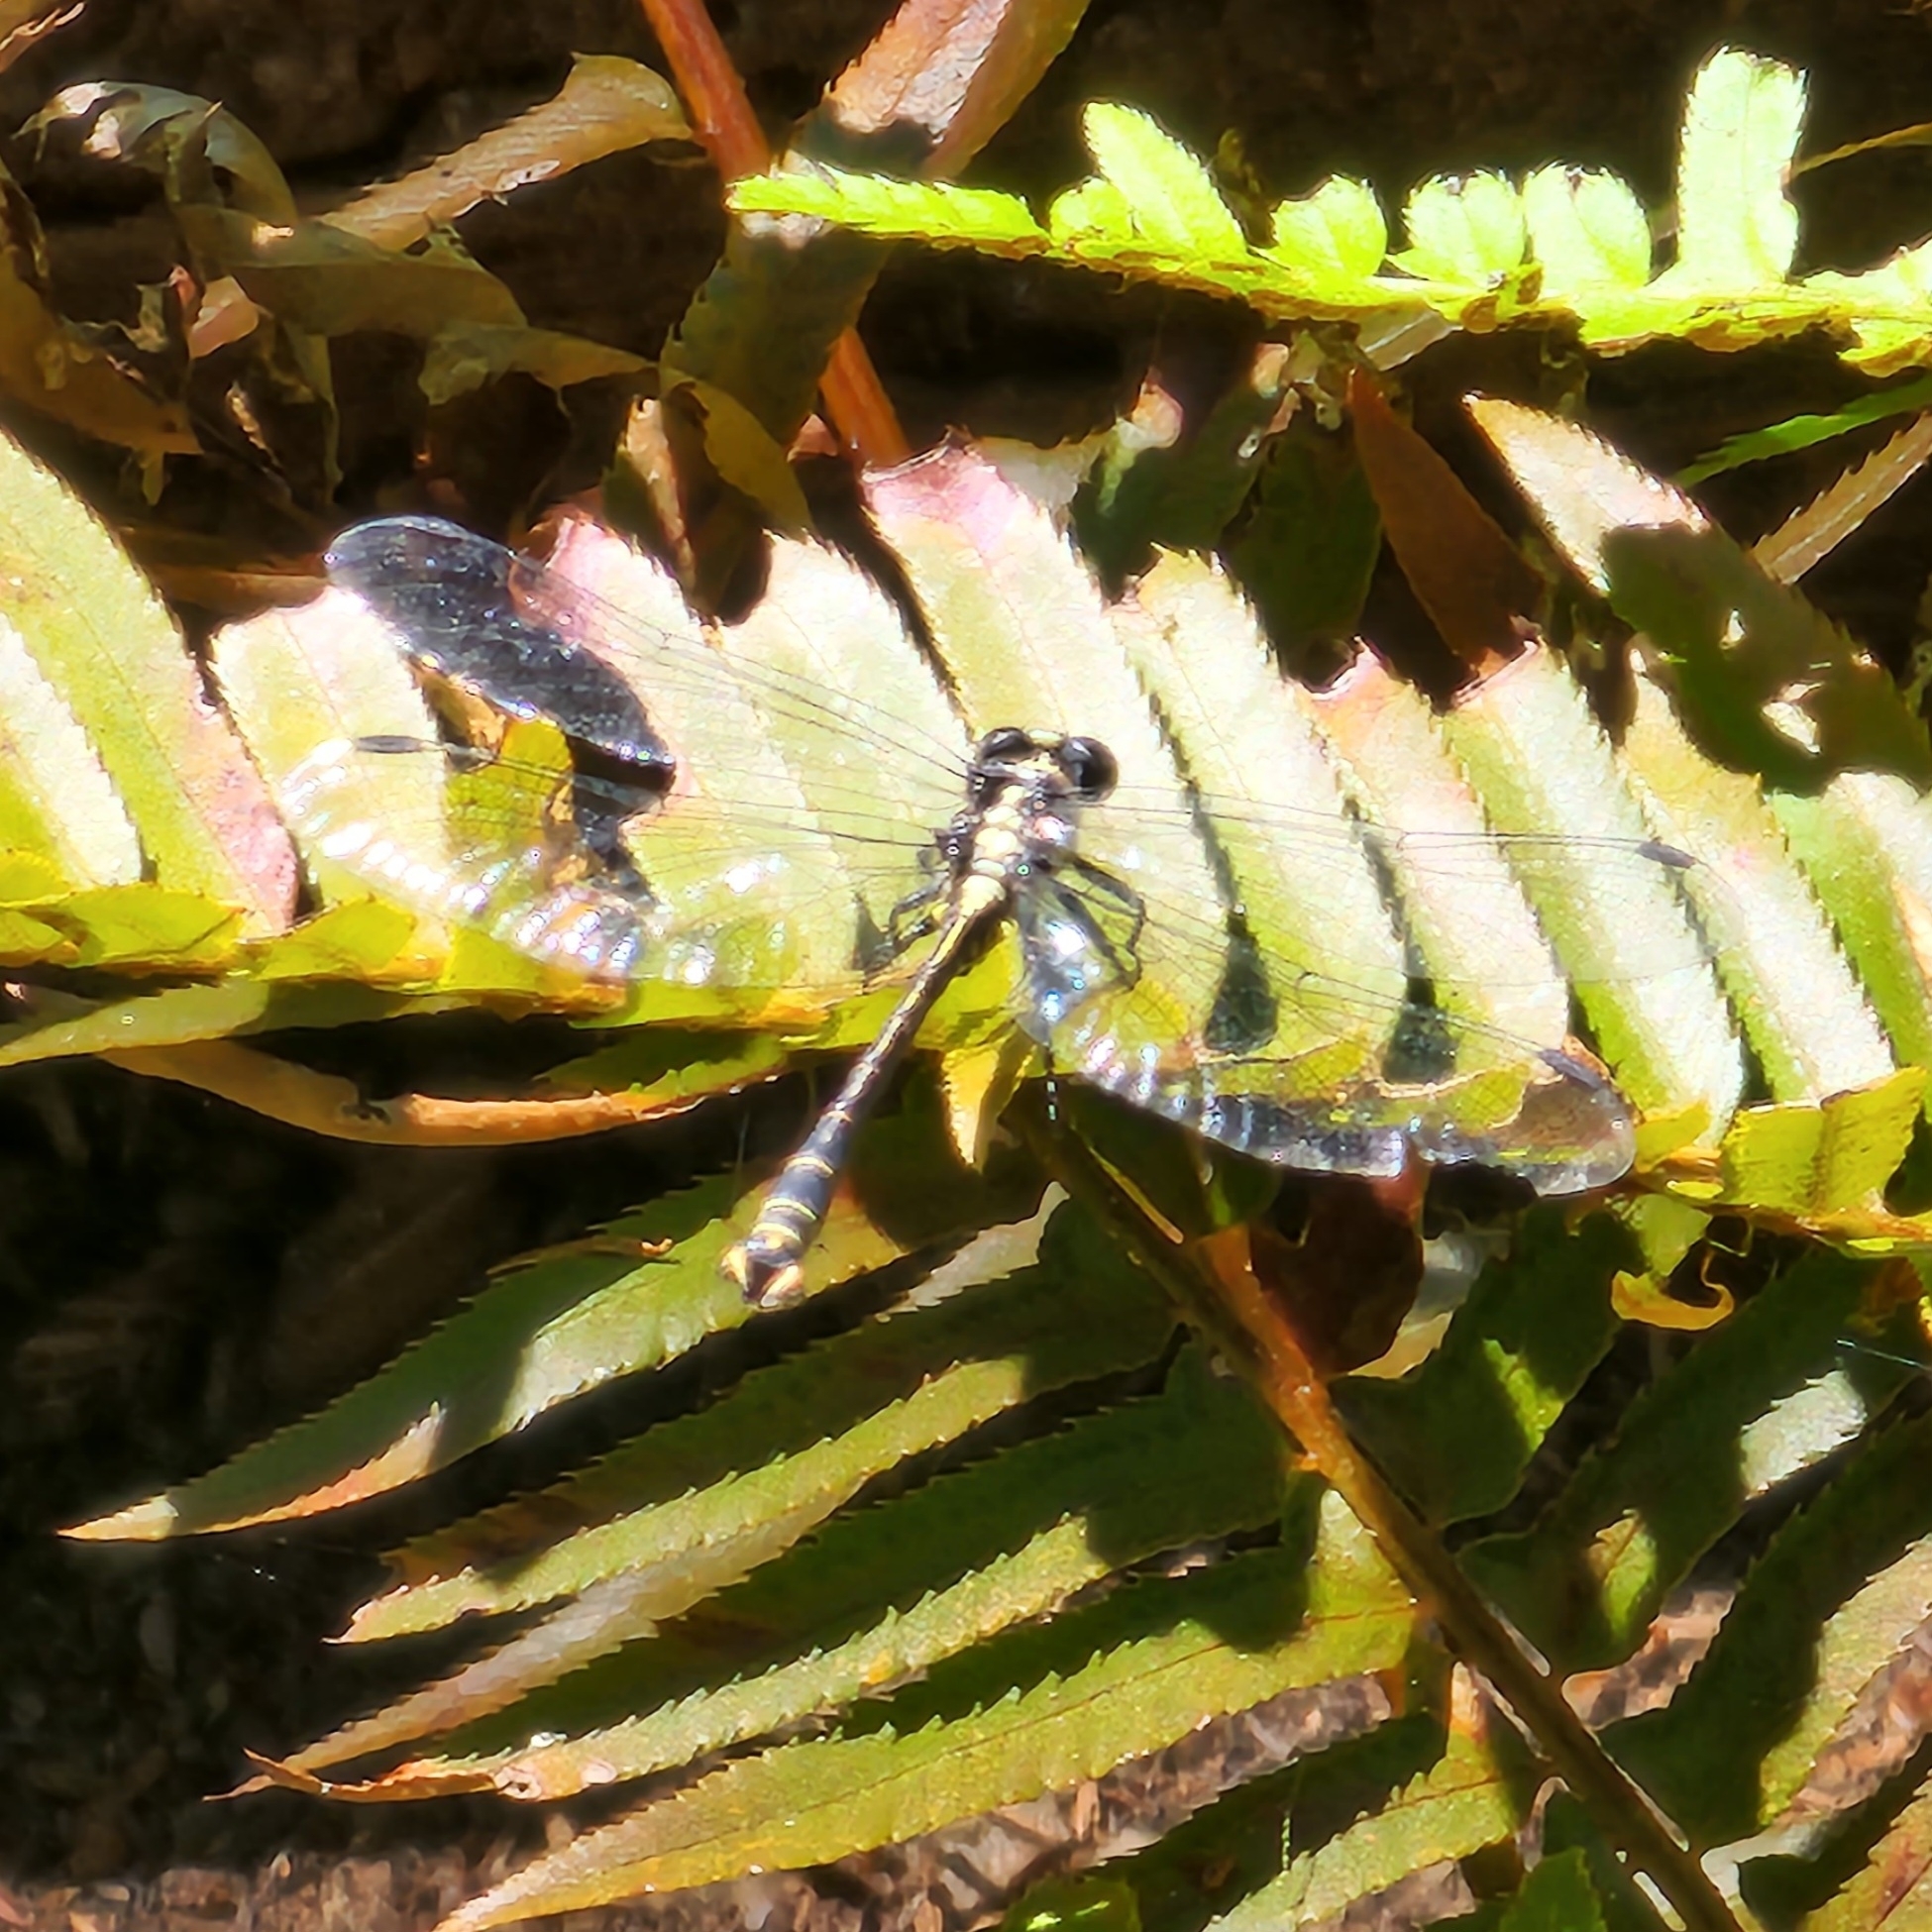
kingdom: Animalia
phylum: Arthropoda
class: Insecta
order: Odonata
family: Gomphidae
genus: Octogomphus
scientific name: Octogomphus specularis
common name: Grappletail
